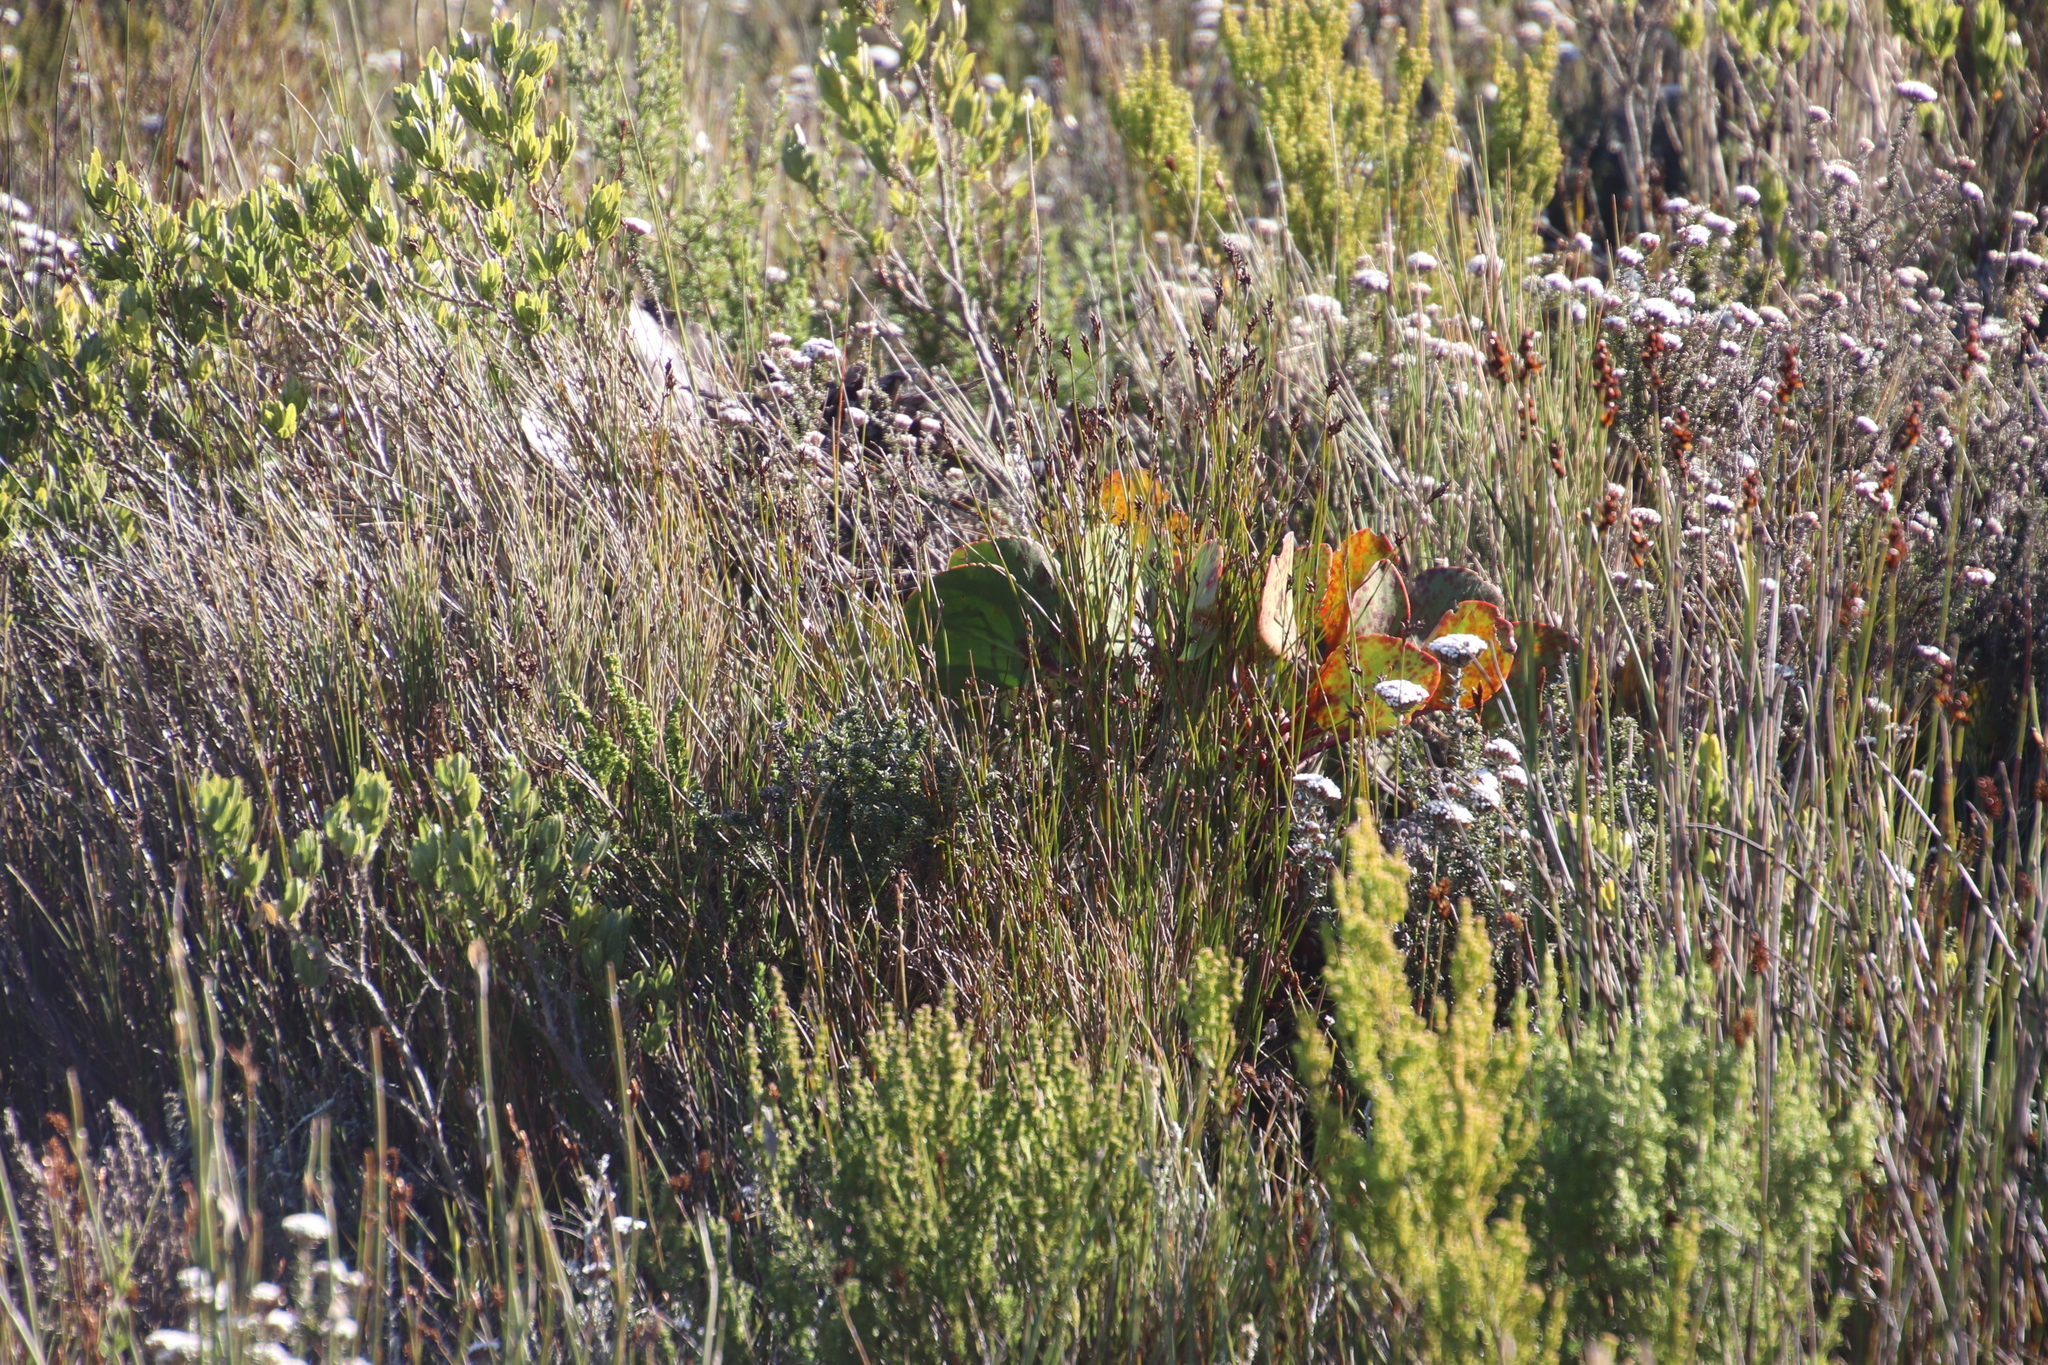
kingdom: Plantae
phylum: Tracheophyta
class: Magnoliopsida
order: Proteales
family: Proteaceae
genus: Protea
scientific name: Protea cynaroides
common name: King protea
